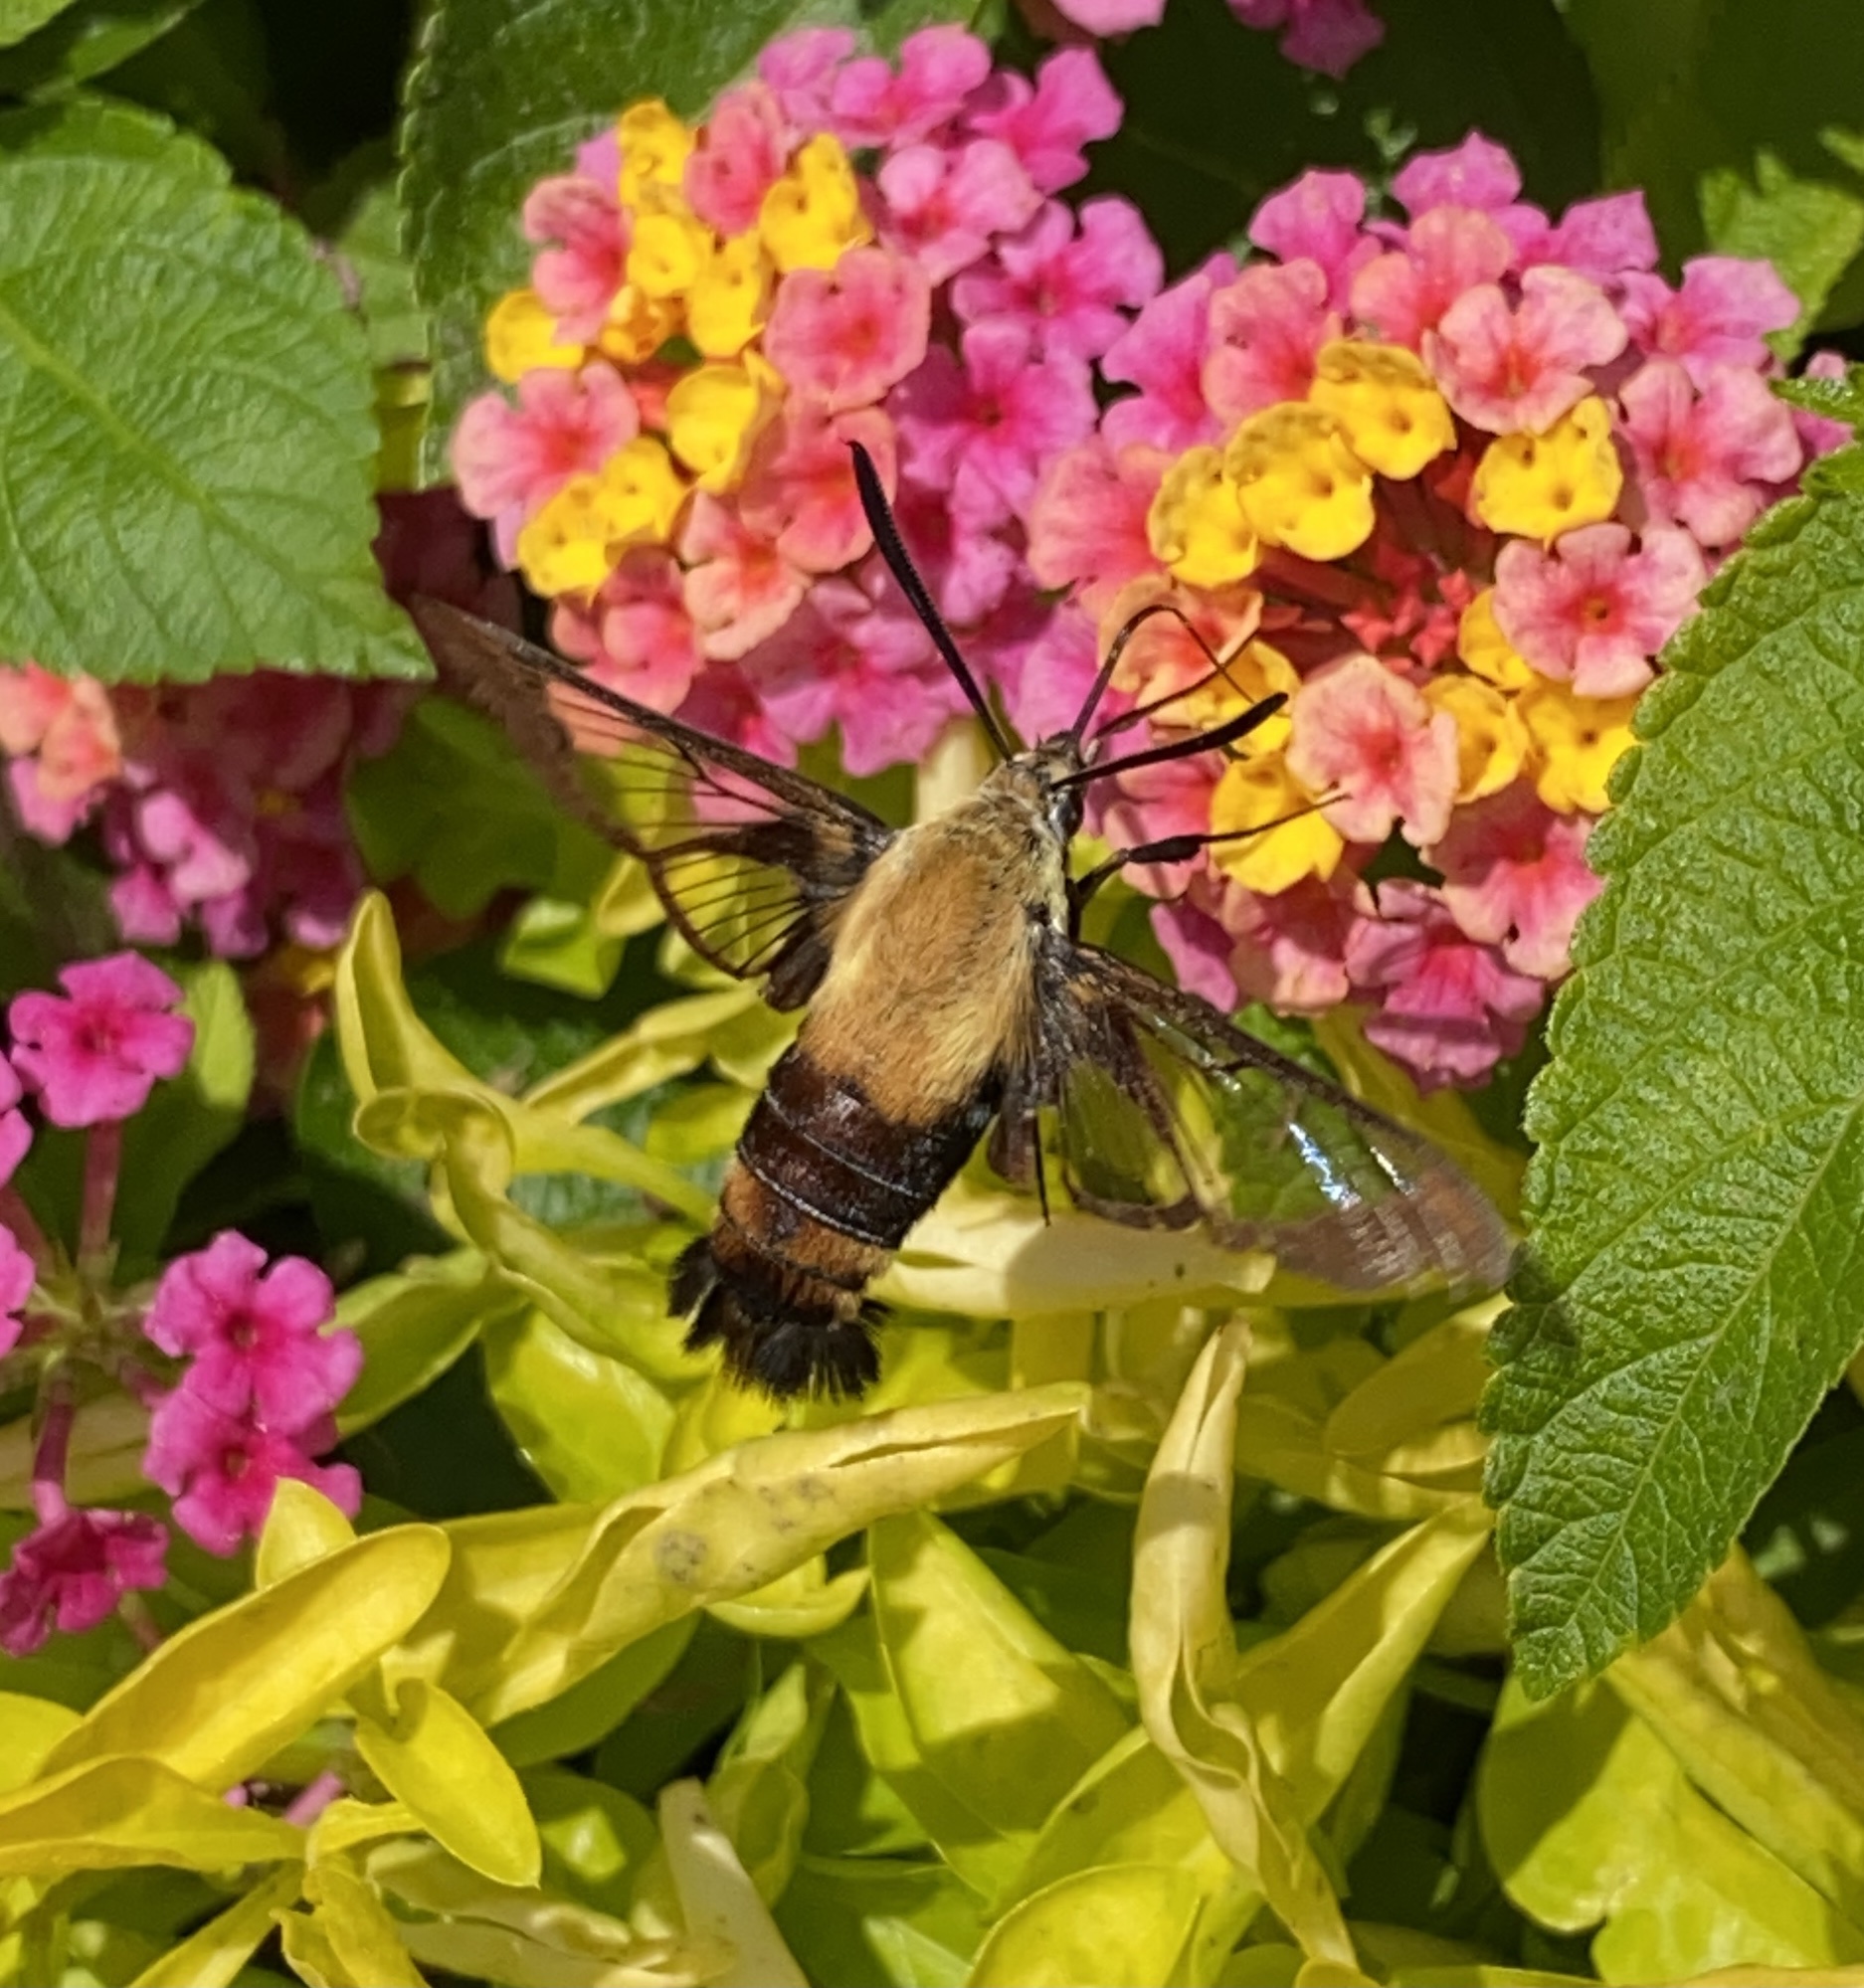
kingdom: Animalia
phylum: Arthropoda
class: Insecta
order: Lepidoptera
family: Sphingidae
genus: Hemaris
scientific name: Hemaris diffinis
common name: Bumblebee moth
